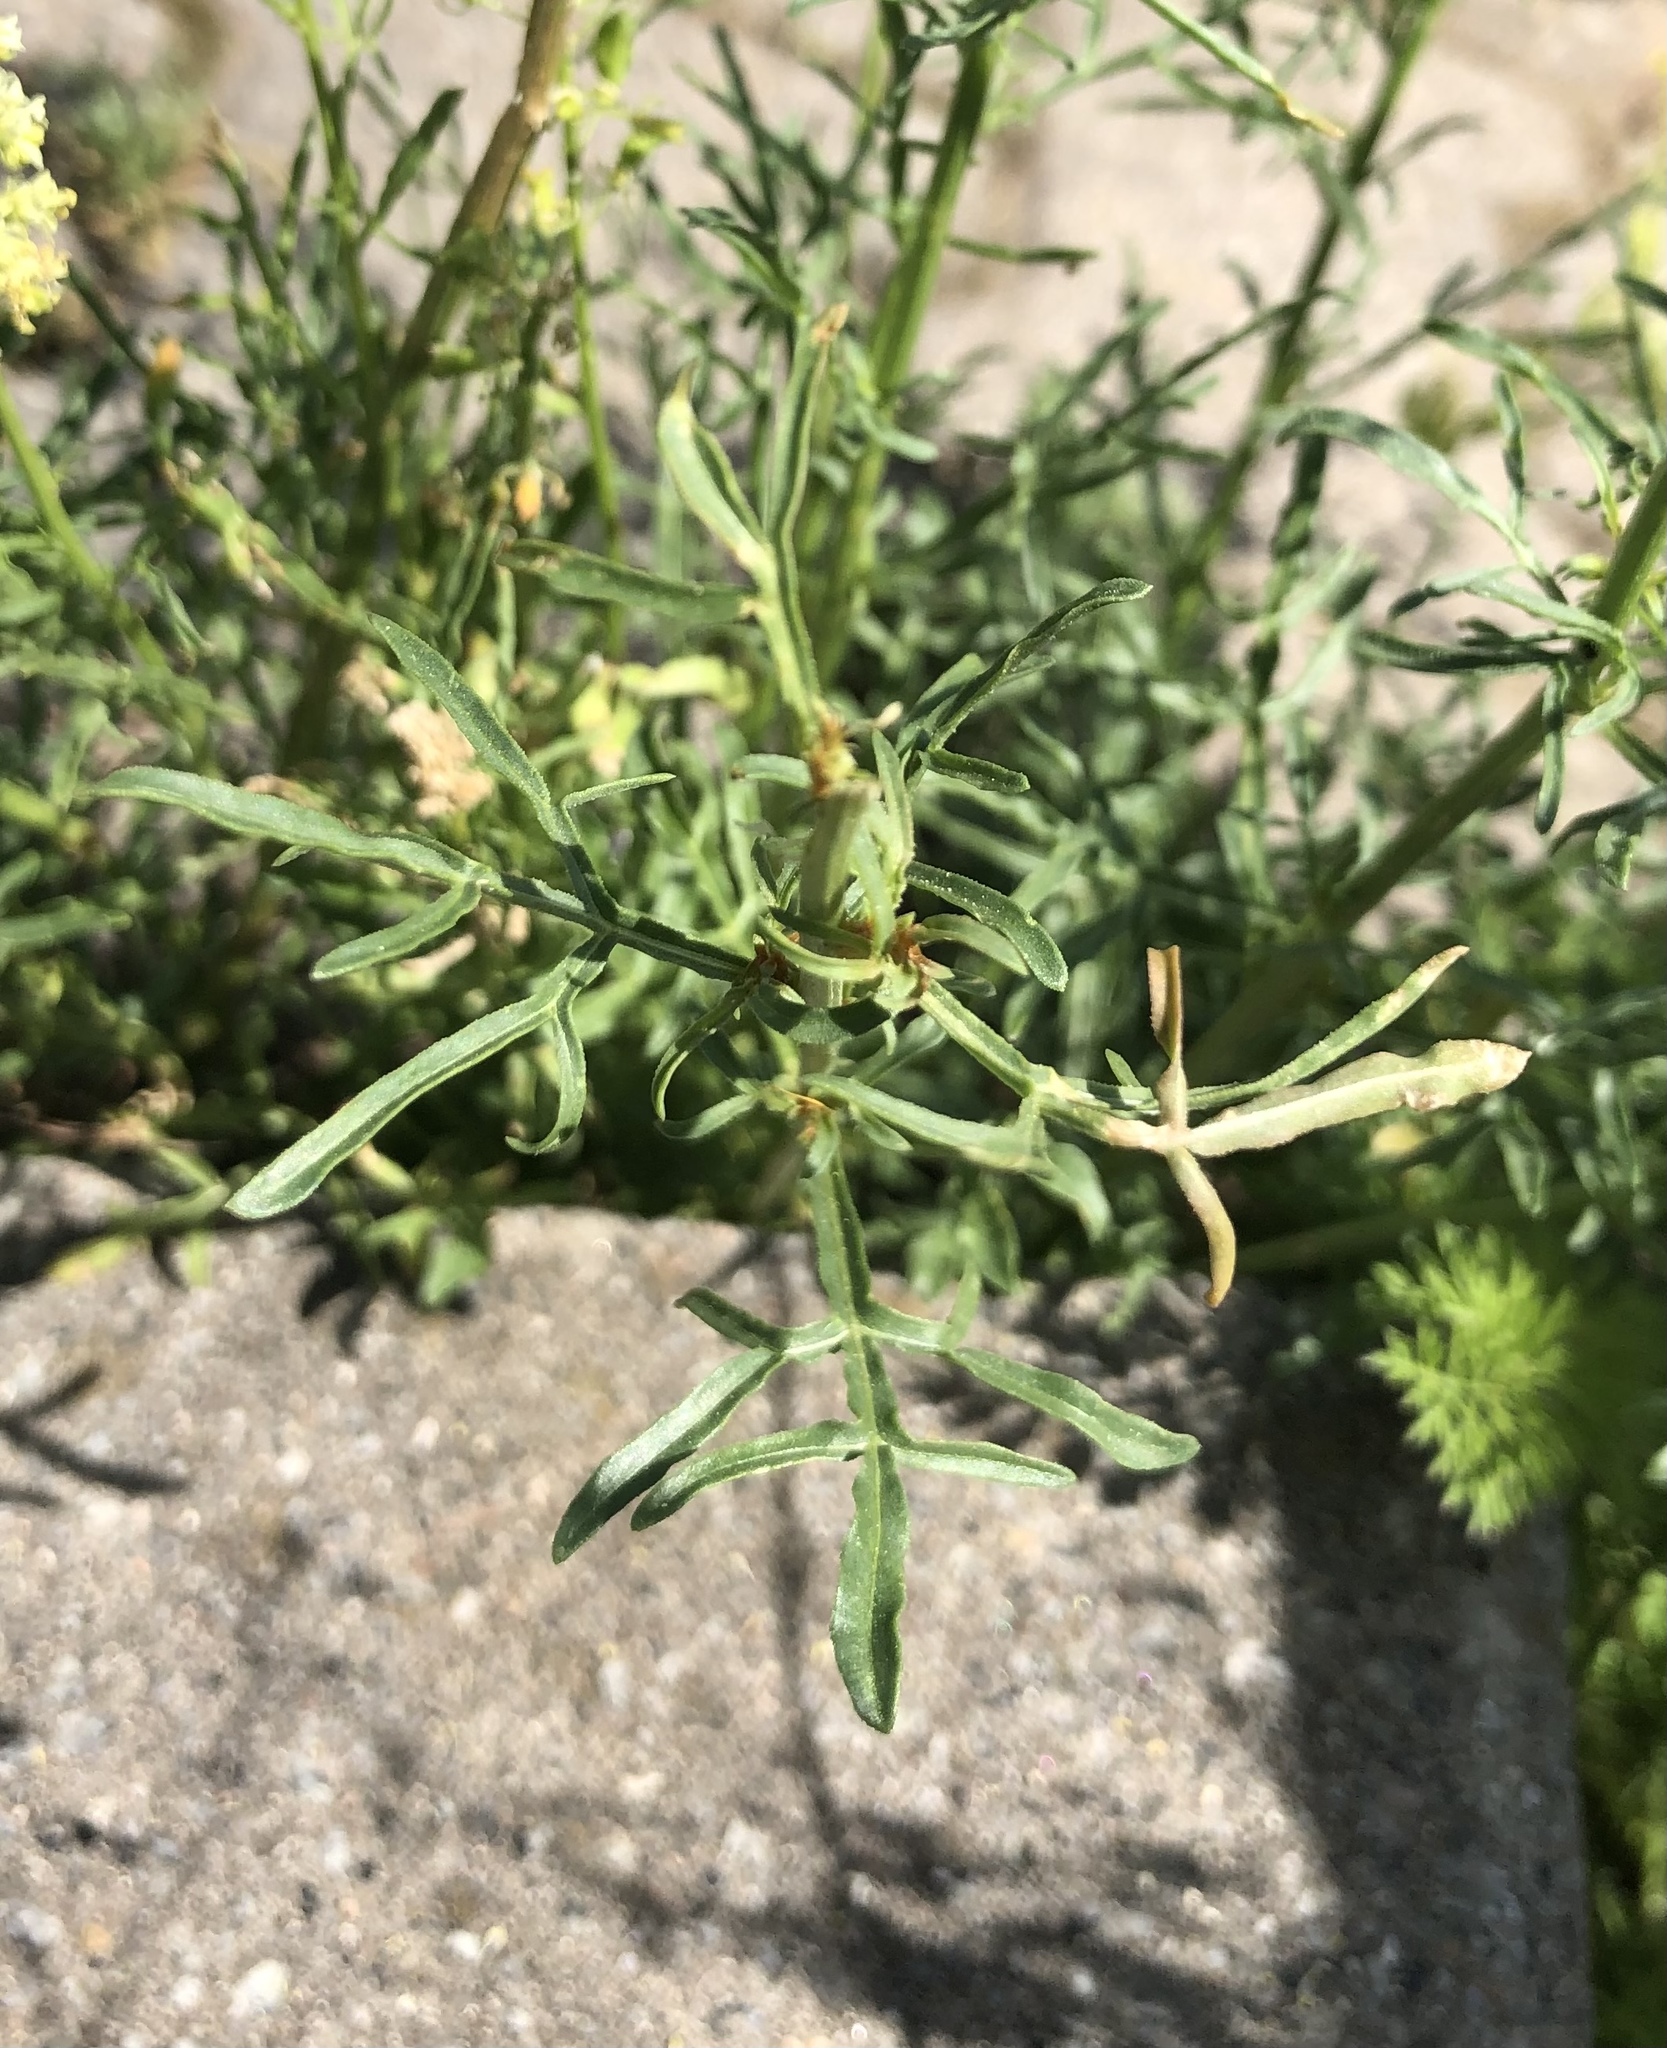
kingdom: Plantae
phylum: Tracheophyta
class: Magnoliopsida
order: Brassicales
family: Resedaceae
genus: Reseda
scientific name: Reseda lutea
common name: Wild mignonette
